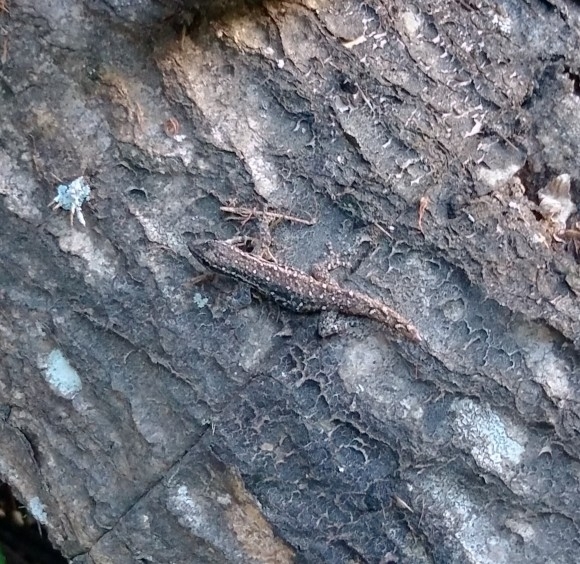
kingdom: Animalia
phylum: Chordata
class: Squamata
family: Gekkonidae
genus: Lygodactylus
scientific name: Lygodactylus capensis
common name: Cape dwarf gecko
